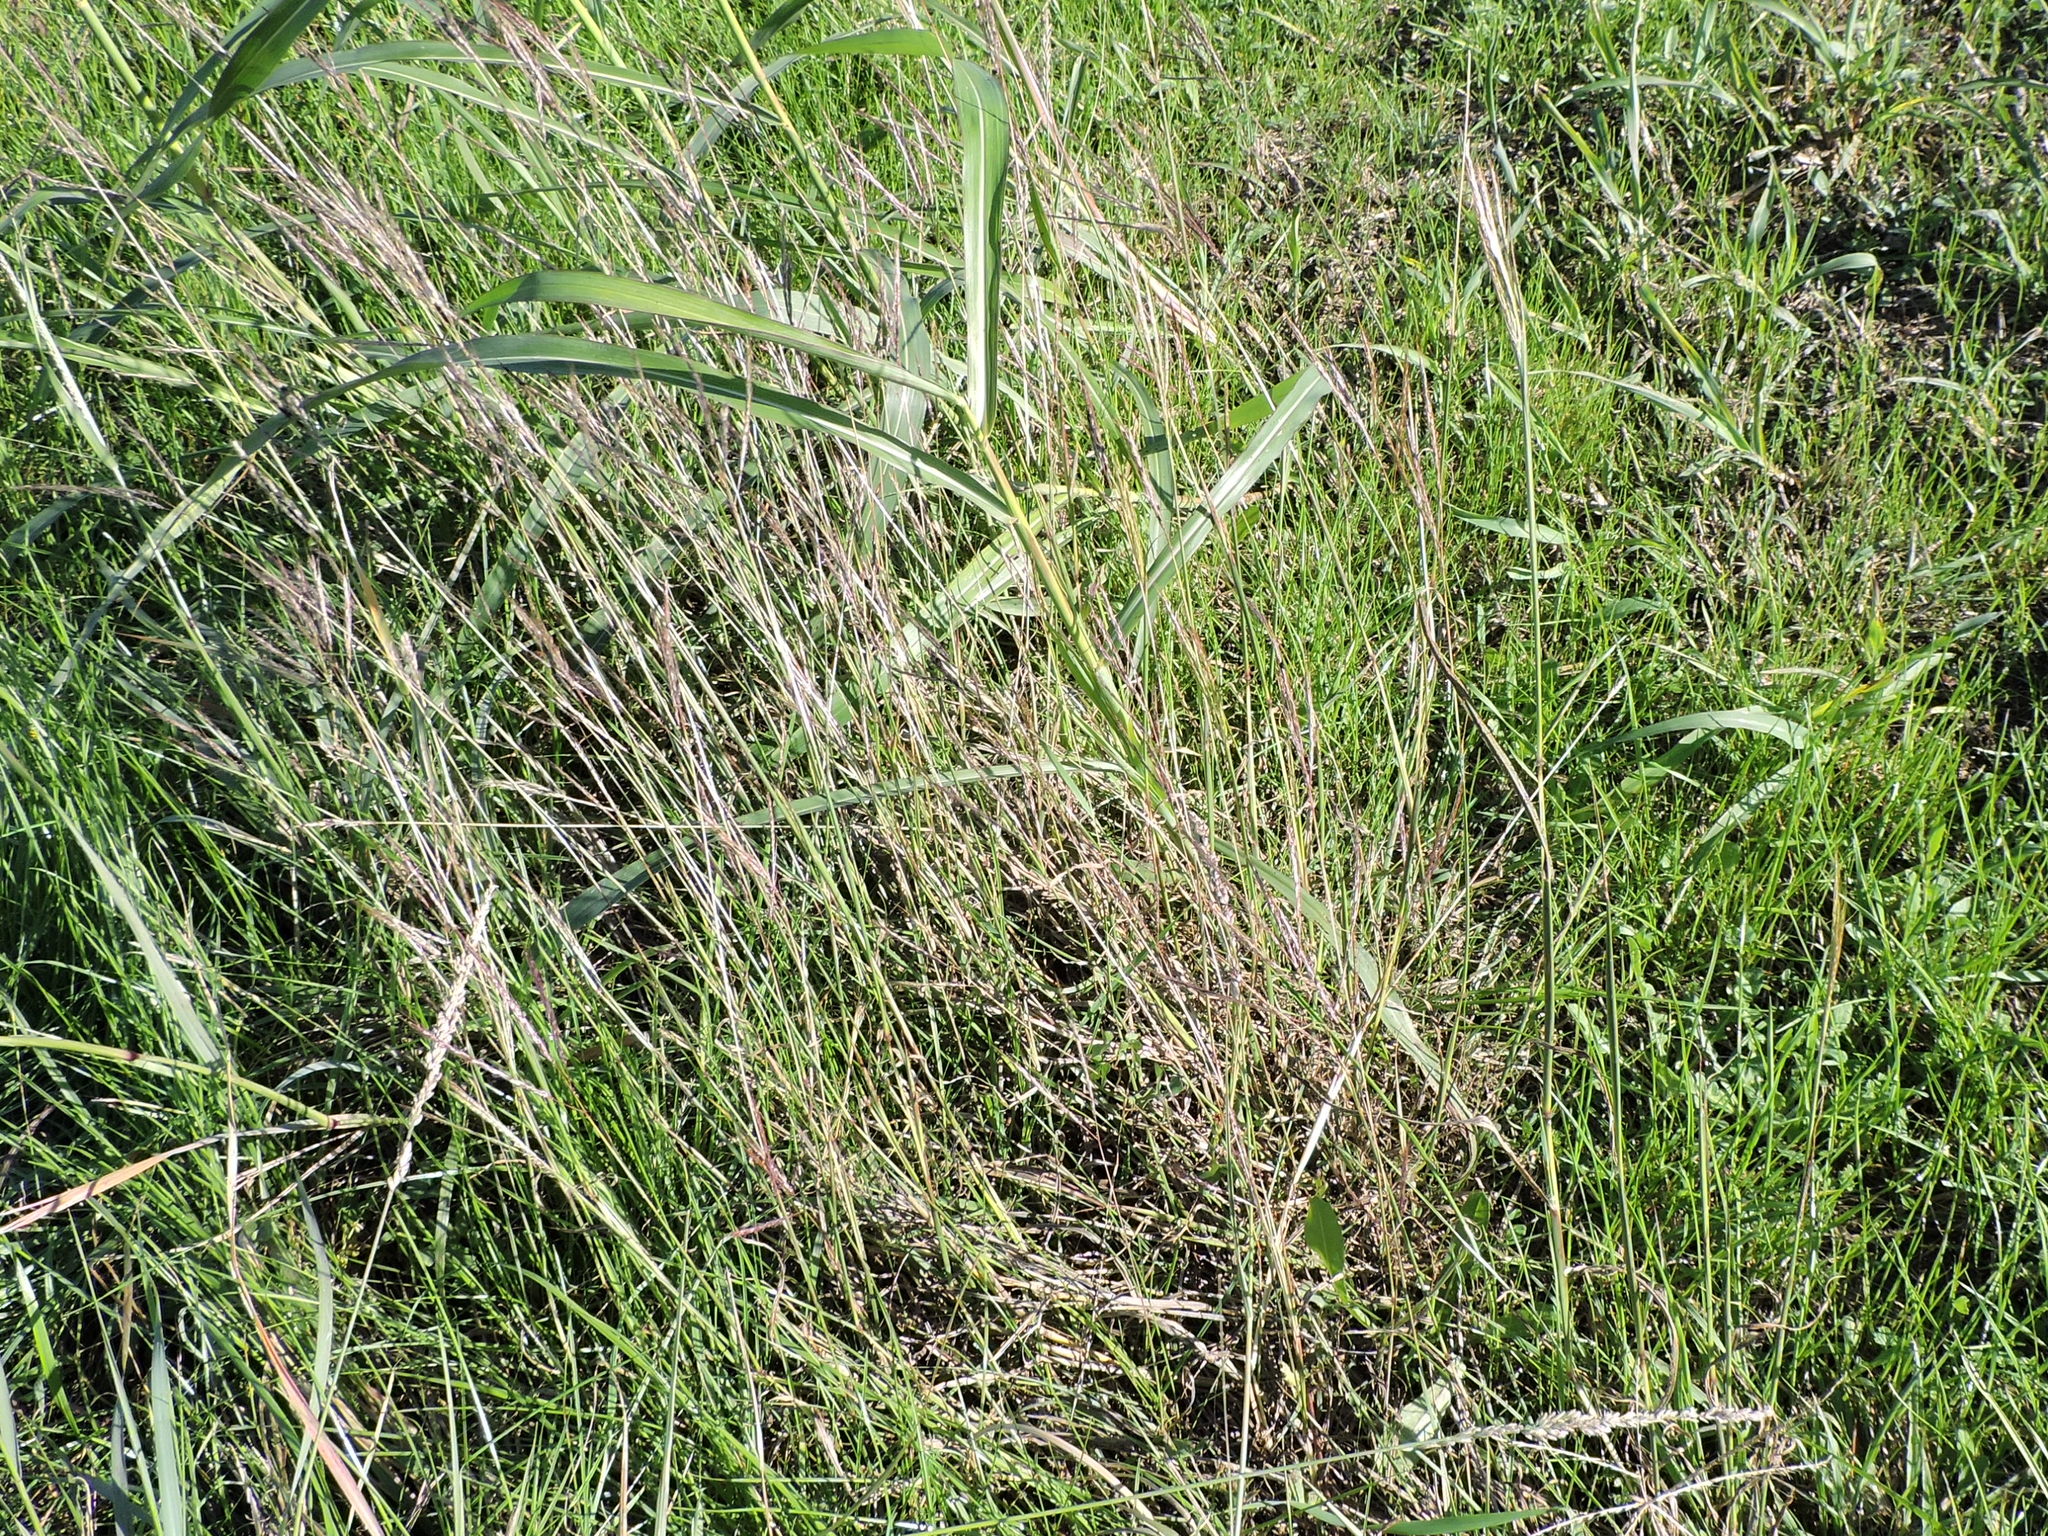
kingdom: Plantae
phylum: Tracheophyta
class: Liliopsida
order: Poales
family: Poaceae
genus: Bothriochloa
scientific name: Bothriochloa ischaemum
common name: Yellow bluestem
